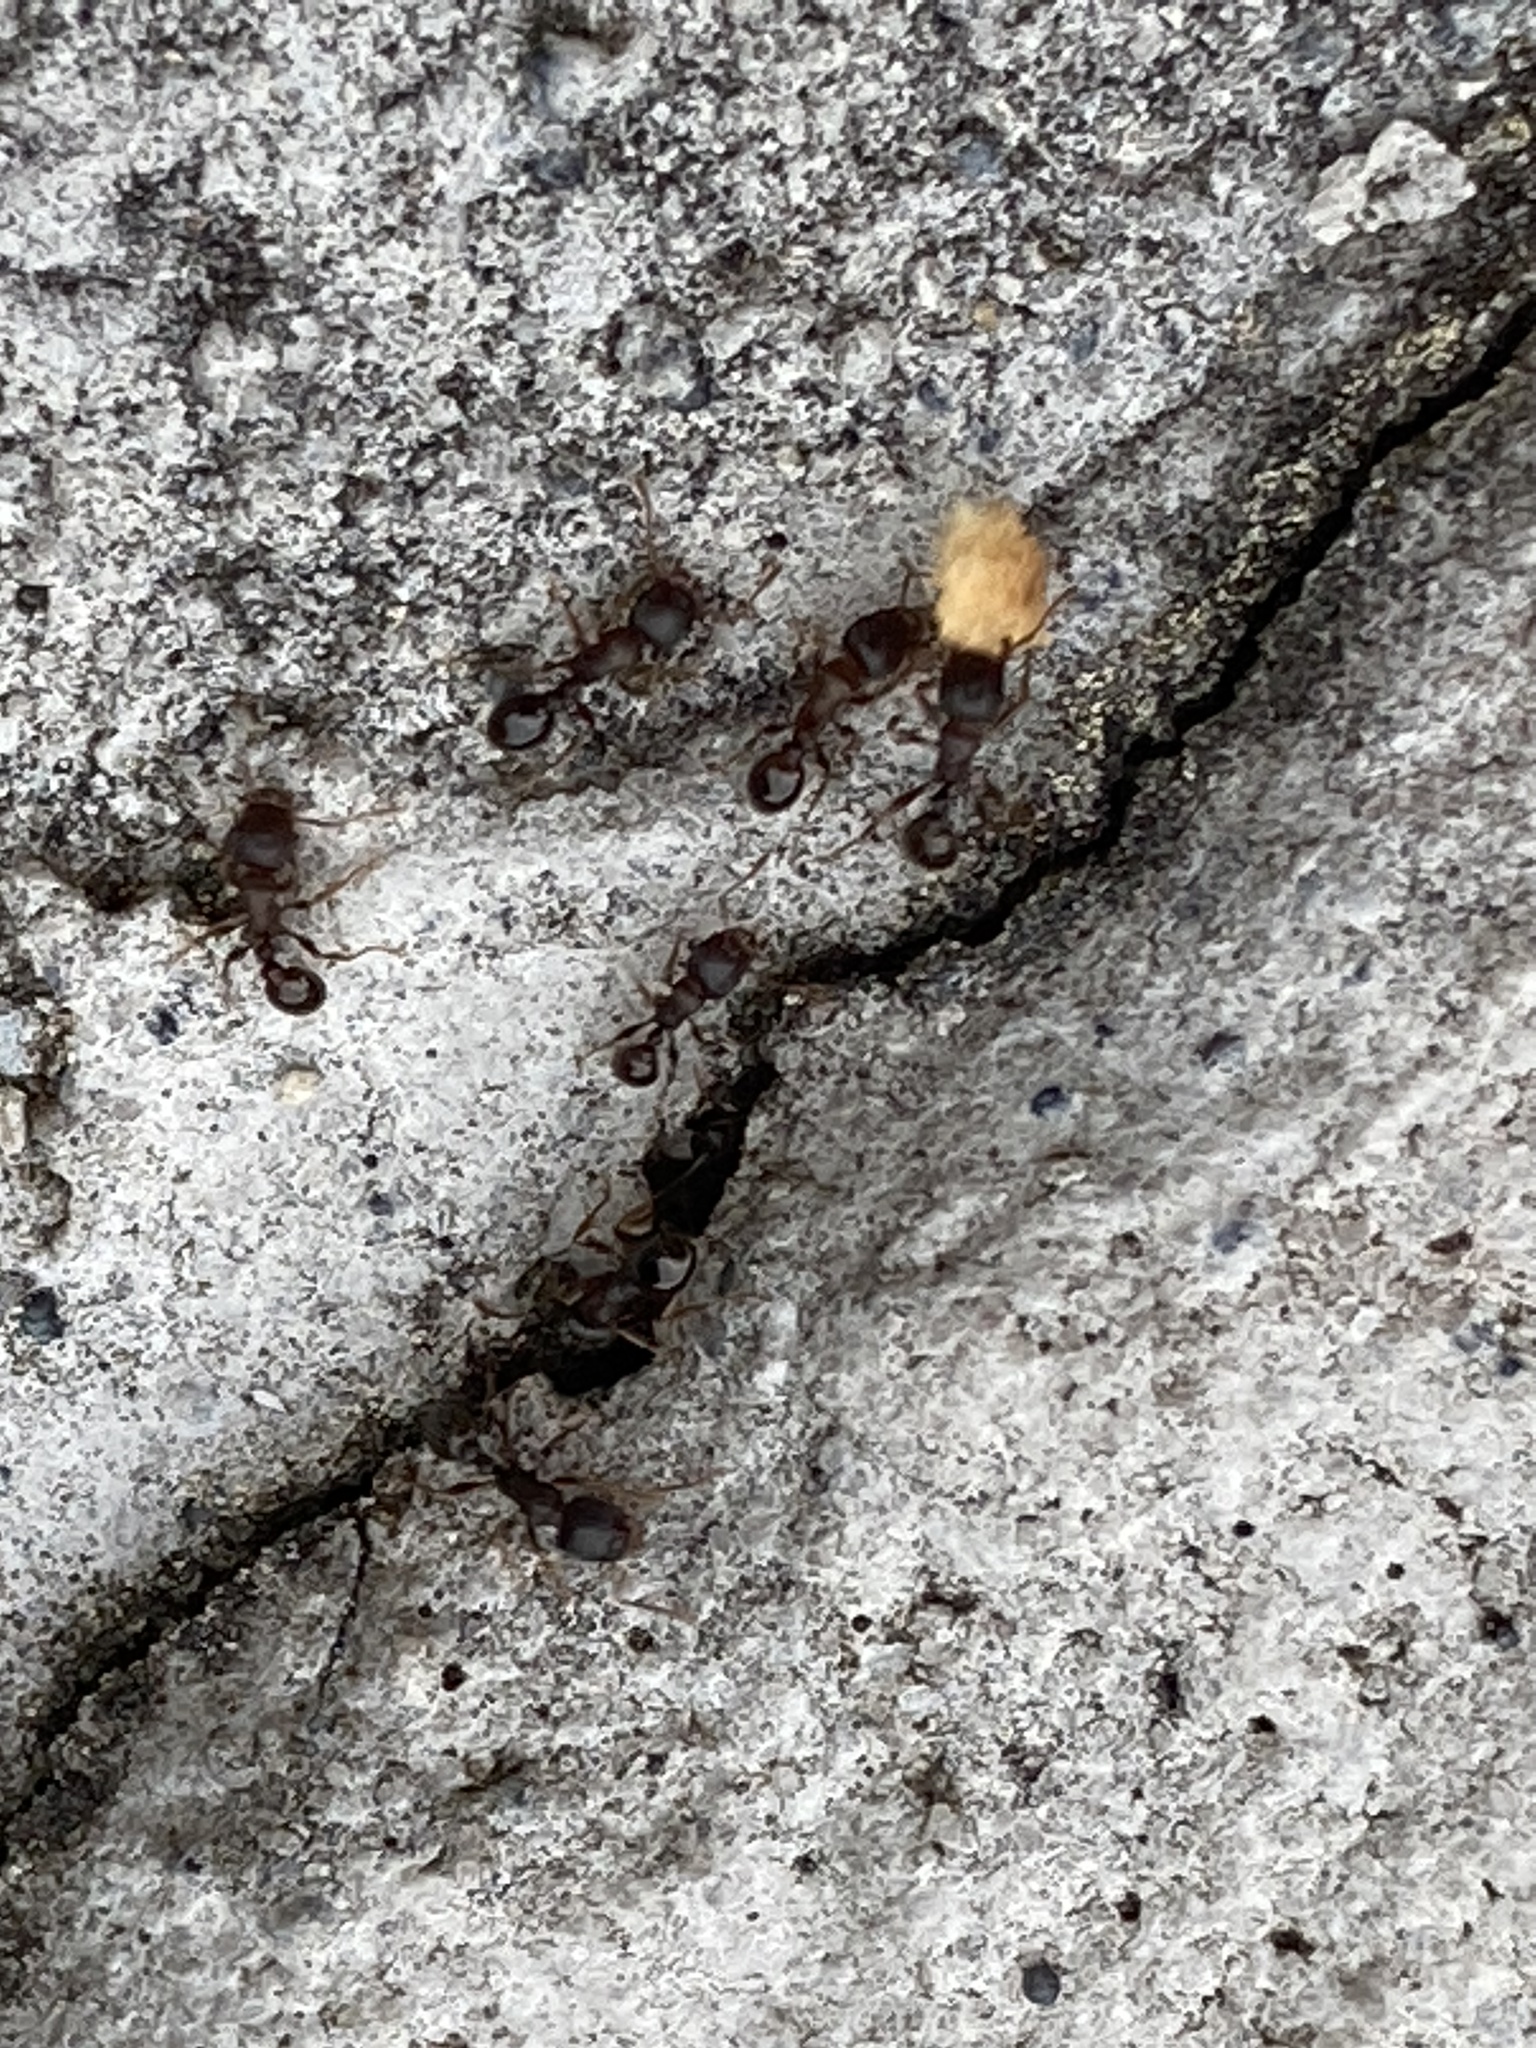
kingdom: Animalia
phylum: Arthropoda
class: Insecta
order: Hymenoptera
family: Formicidae
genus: Tetramorium
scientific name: Tetramorium immigrans
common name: Pavement ant
